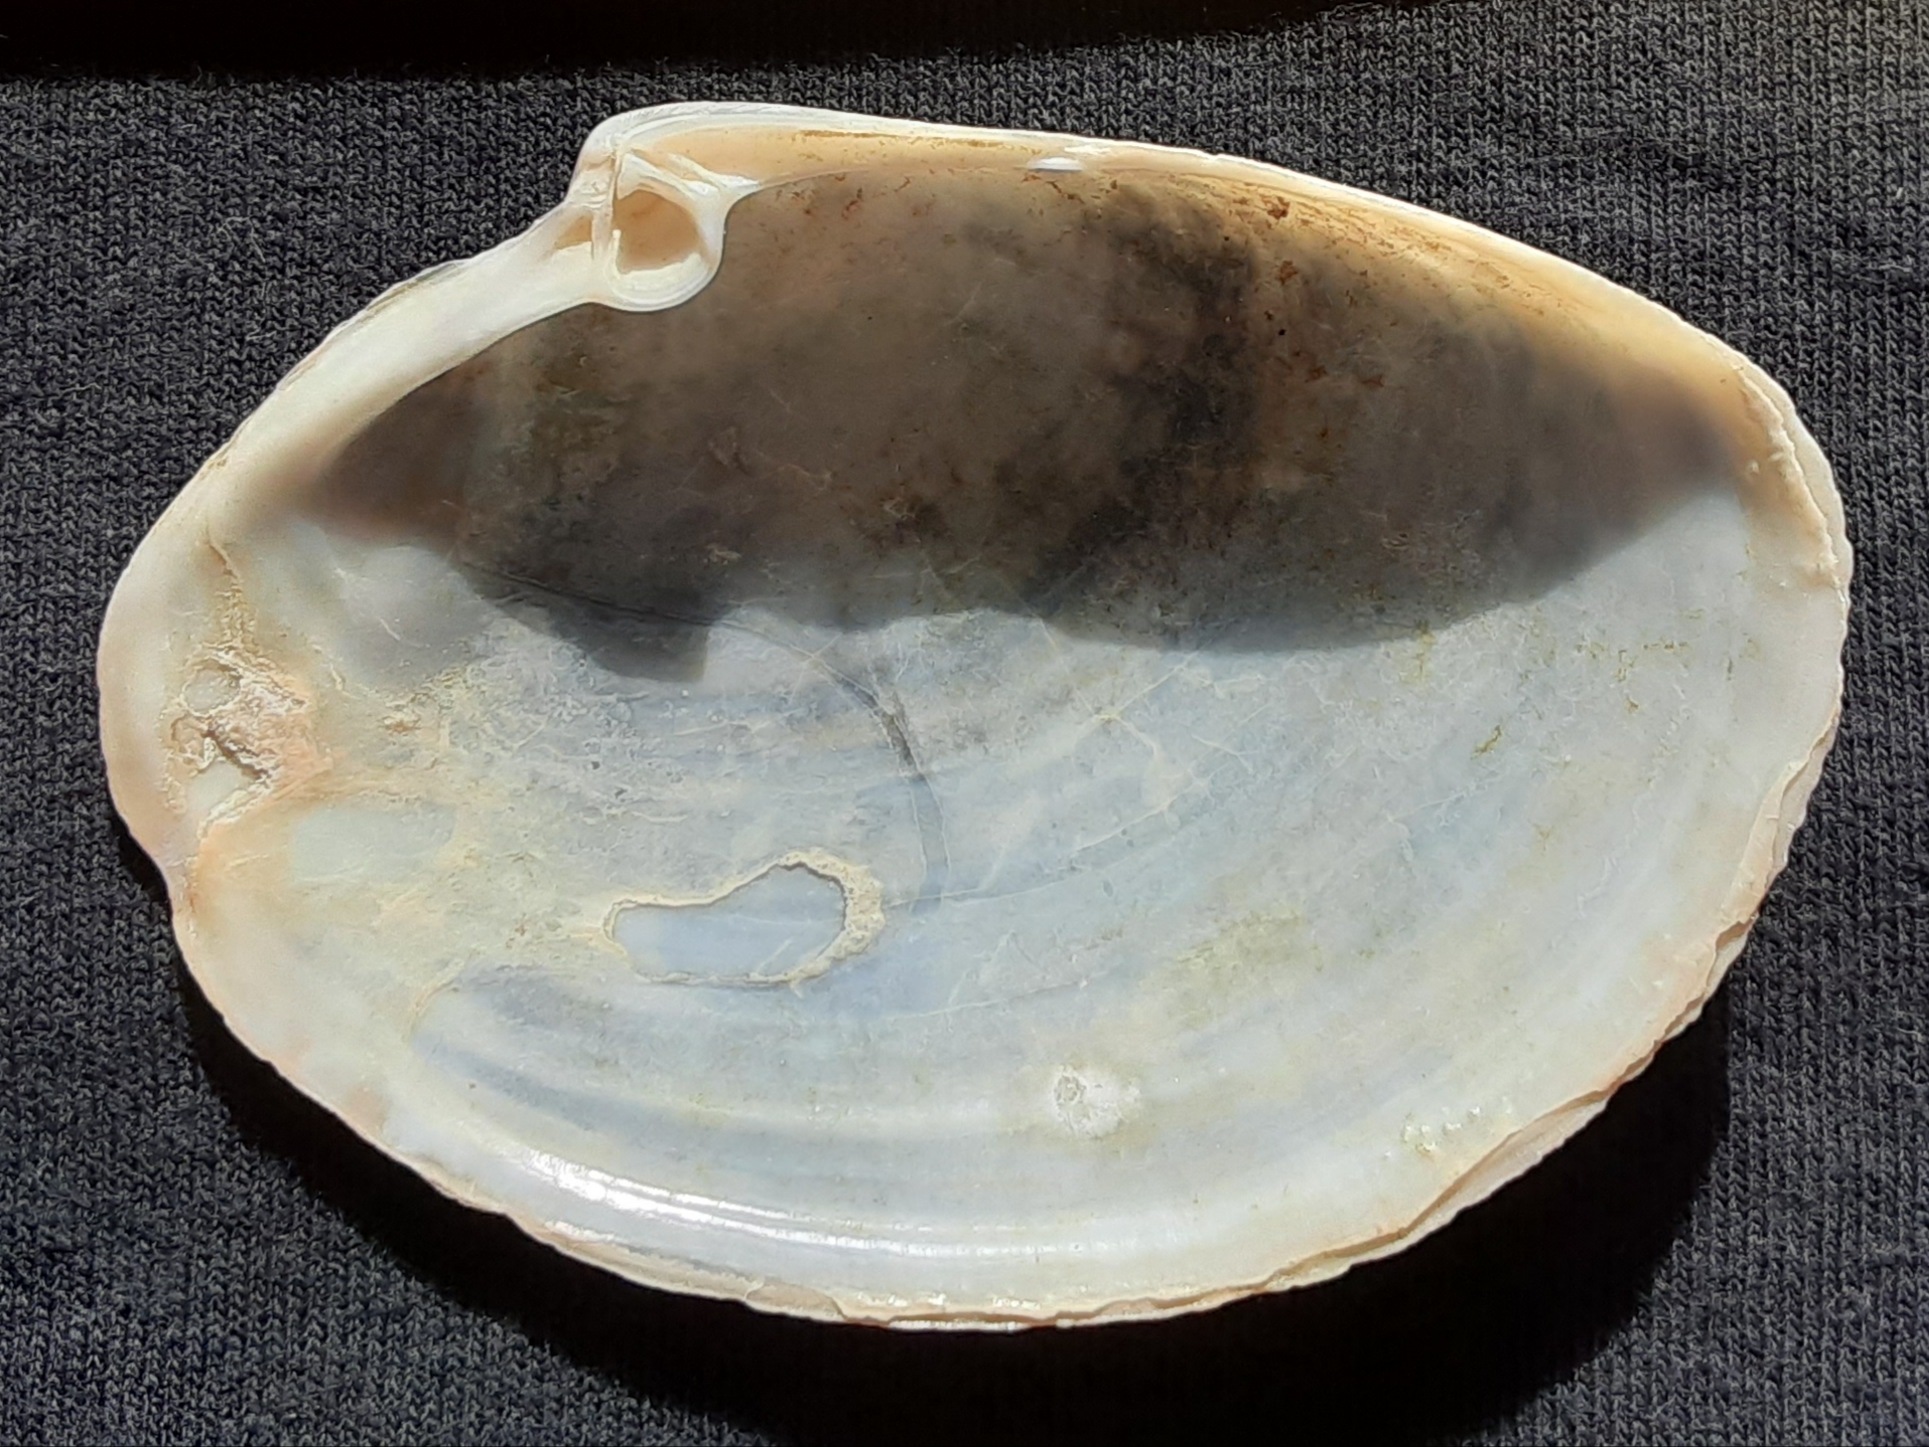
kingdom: Animalia
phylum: Mollusca
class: Bivalvia
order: Venerida
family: Anatinellidae
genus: Anatina
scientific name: Anatina anatina
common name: Smooth duckclam
